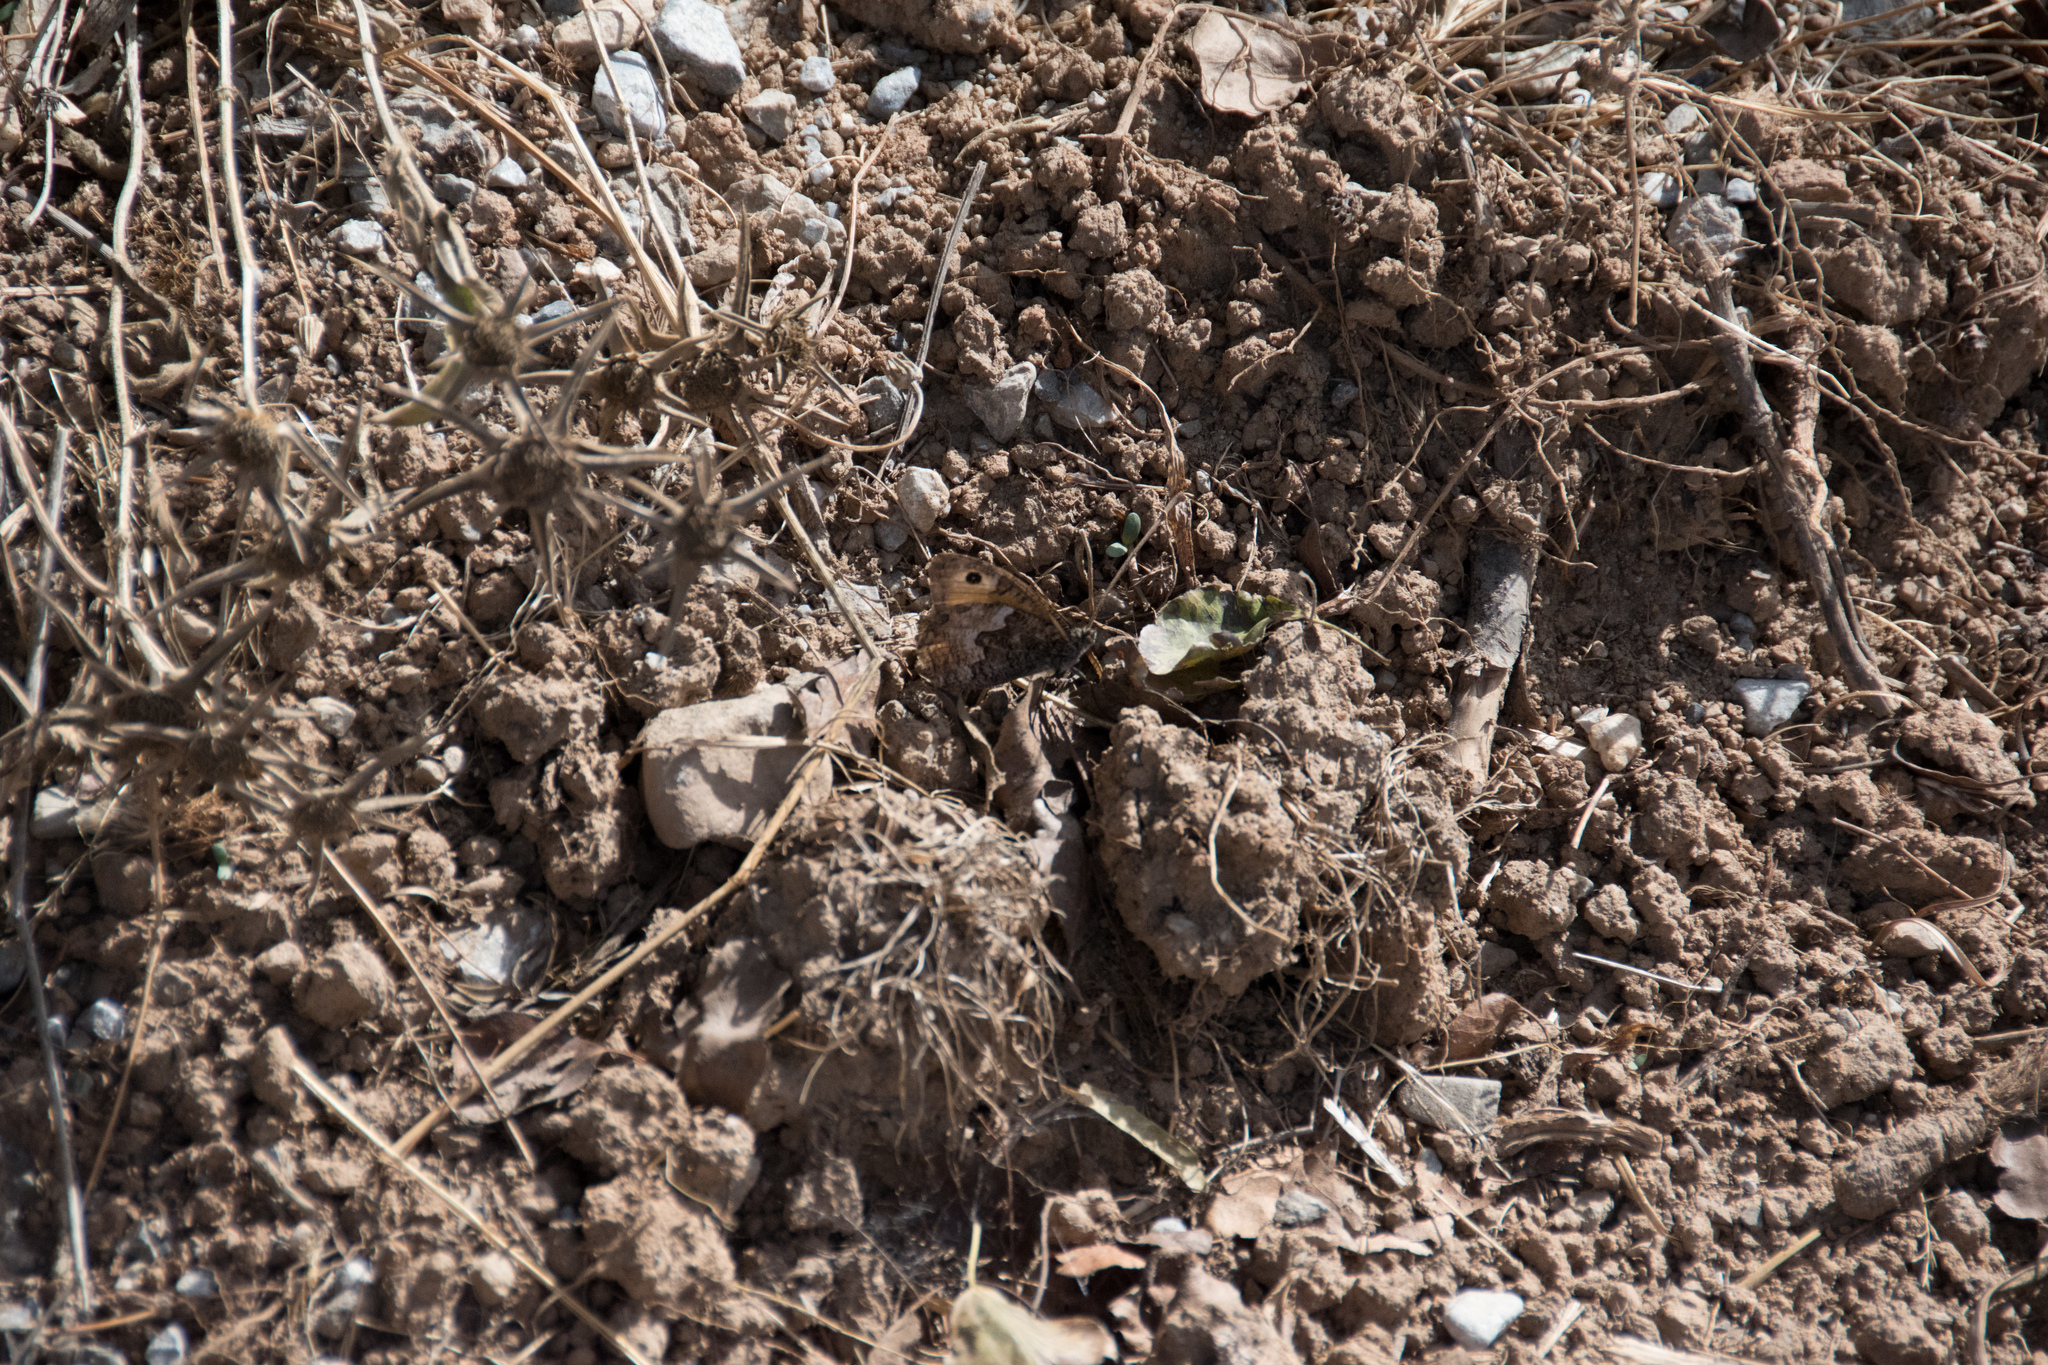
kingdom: Animalia
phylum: Arthropoda
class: Insecta
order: Lepidoptera
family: Nymphalidae
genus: Hipparchia
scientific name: Hipparchia cretica
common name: Cretan grayling
